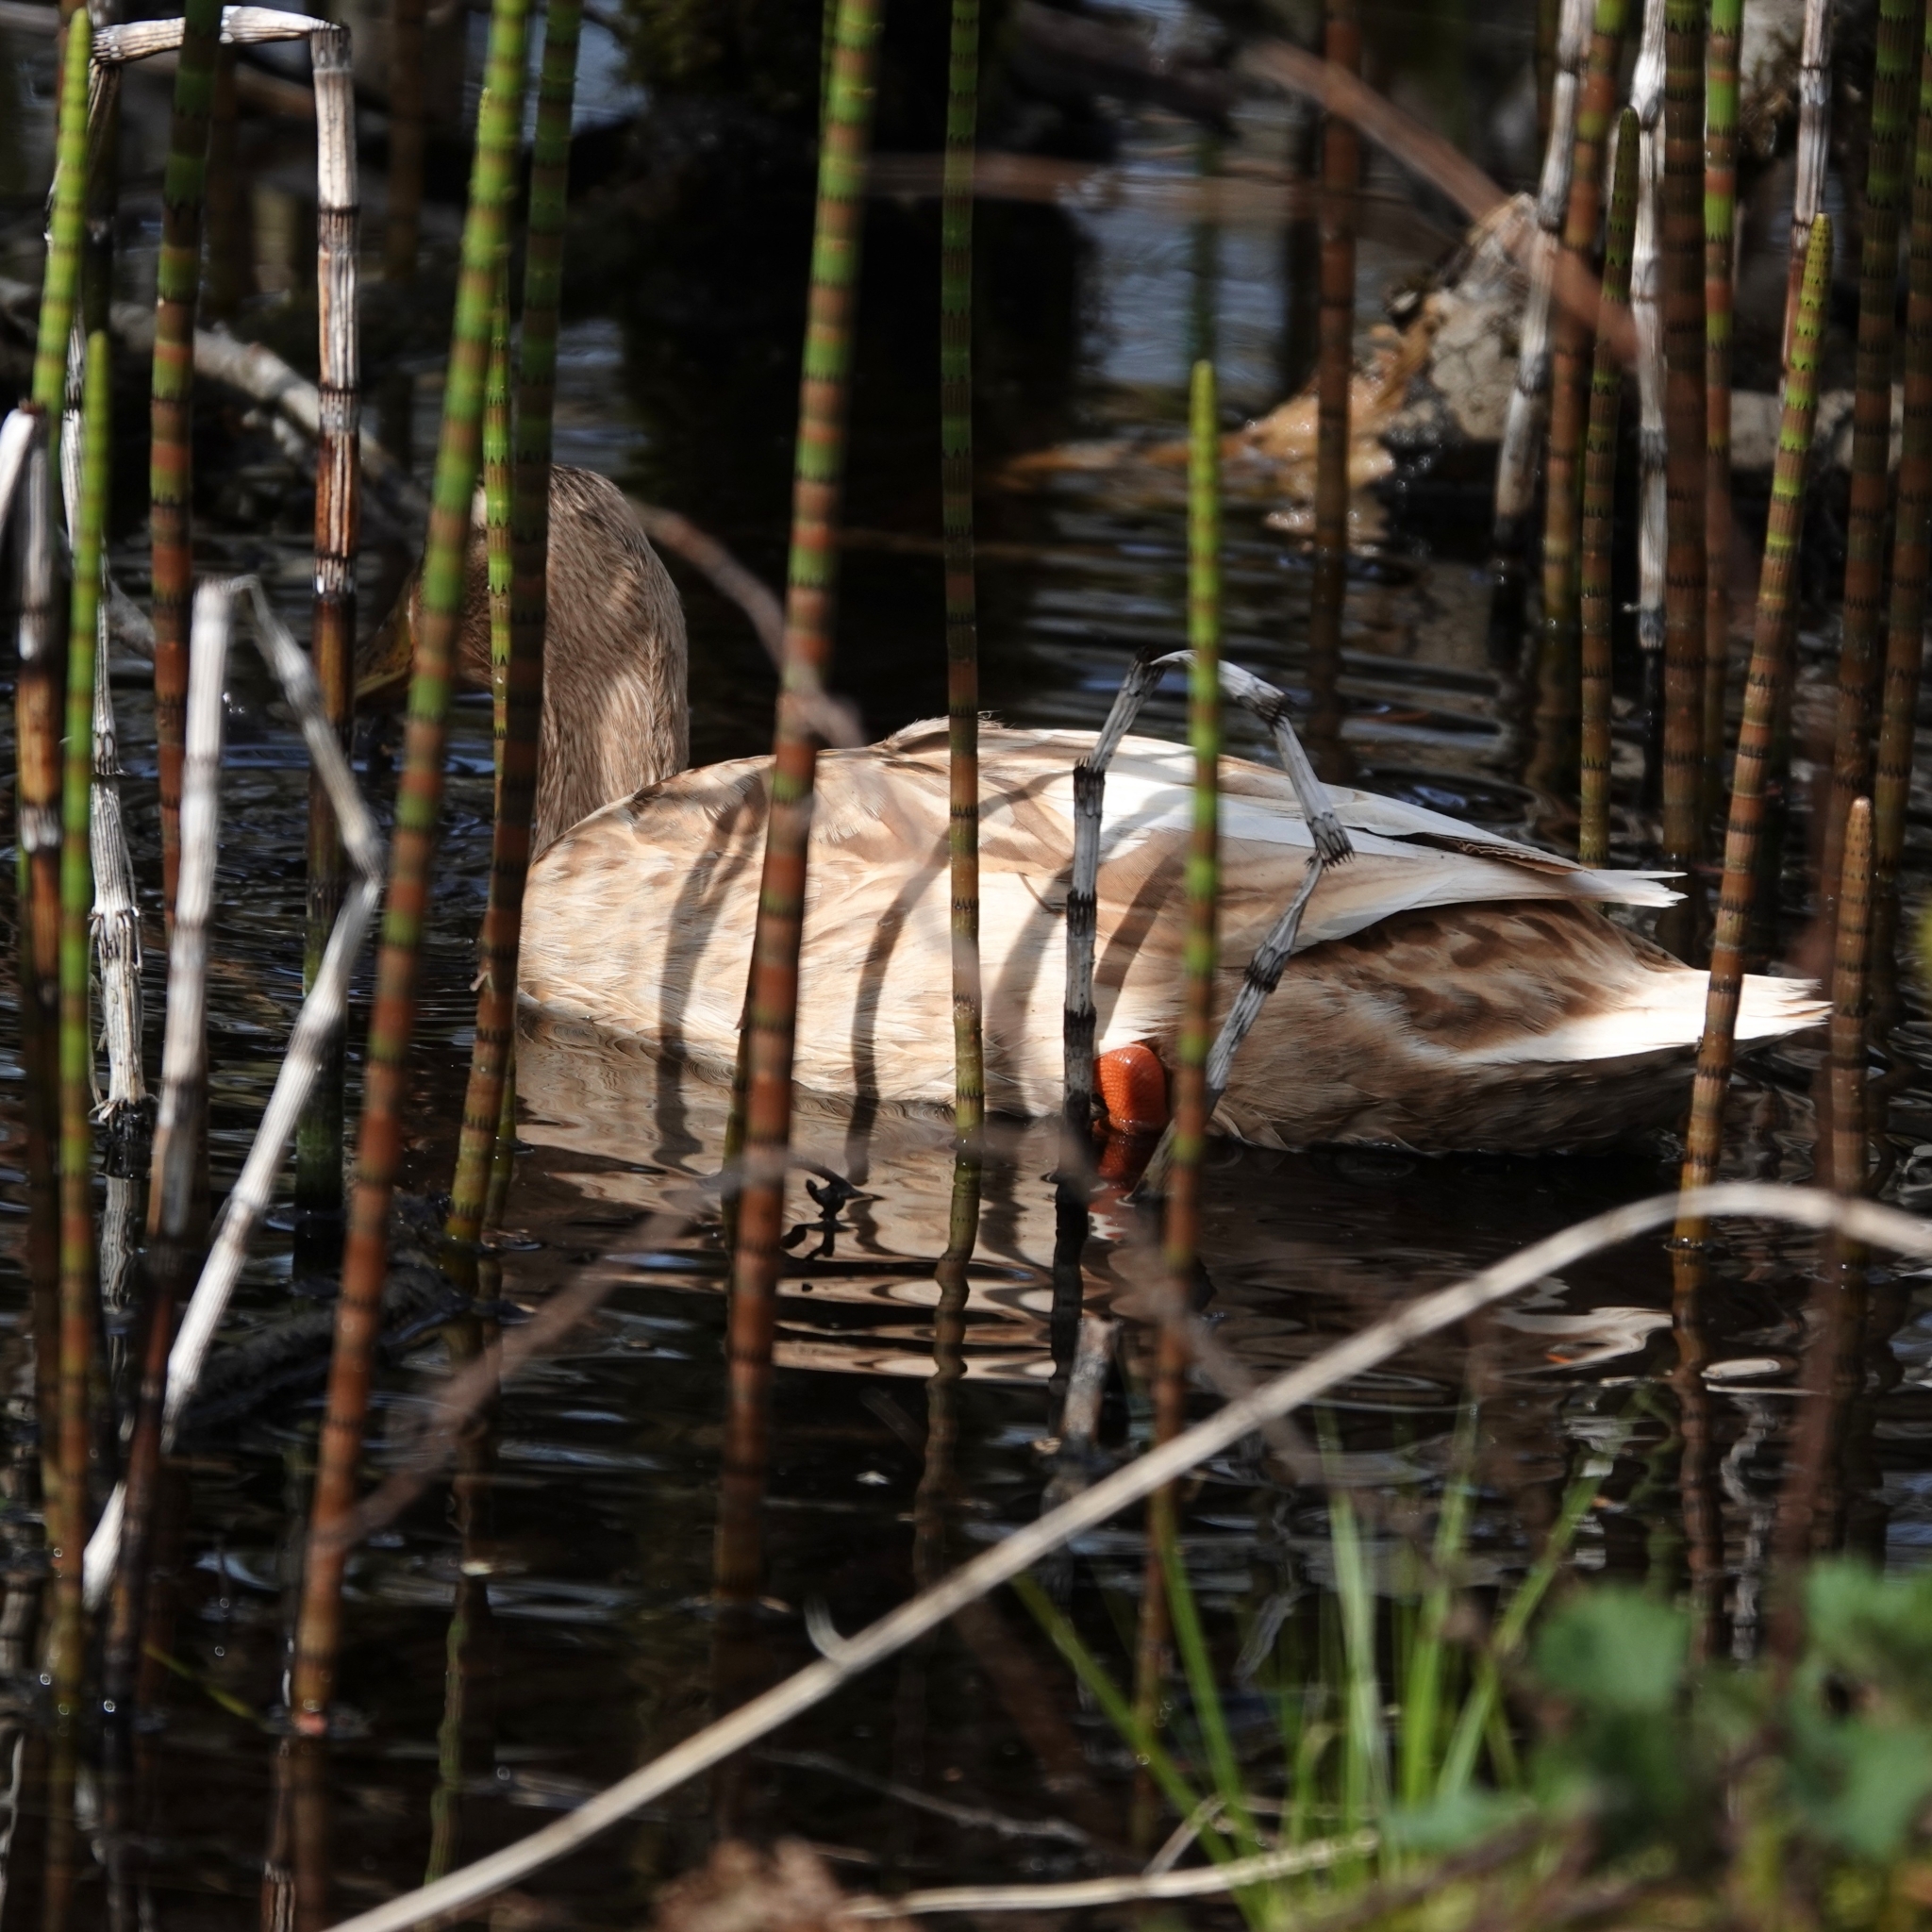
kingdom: Animalia
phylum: Chordata
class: Aves
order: Anseriformes
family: Anatidae
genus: Anas
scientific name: Anas platyrhynchos
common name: Mallard
